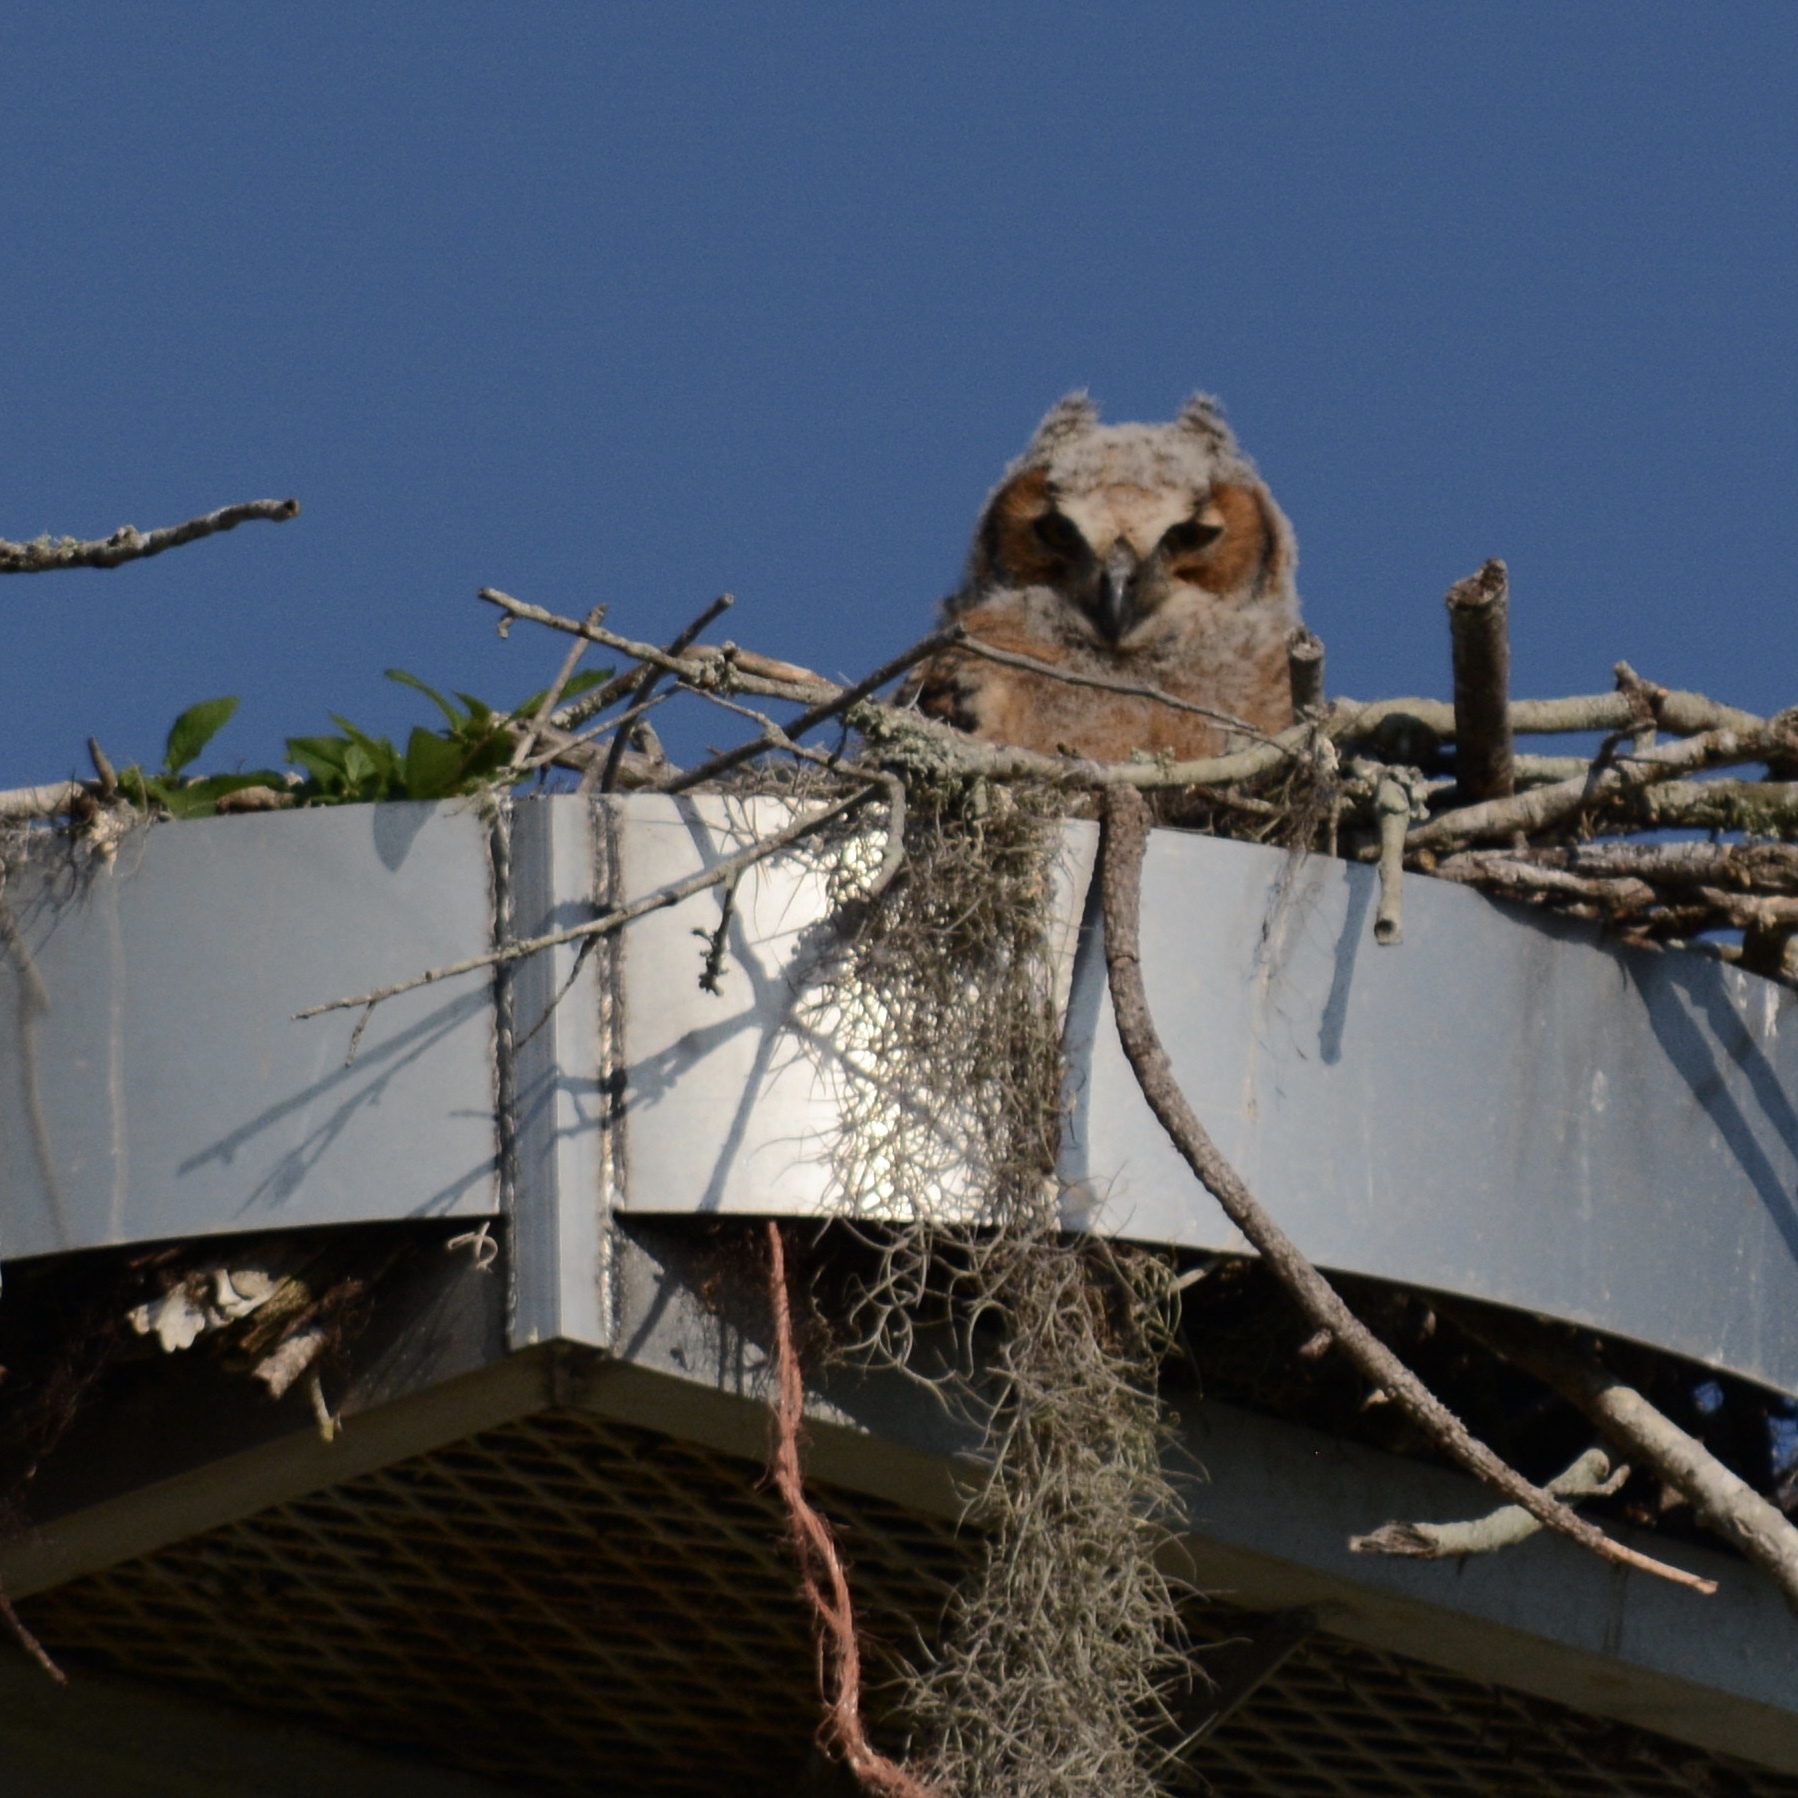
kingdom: Animalia
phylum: Chordata
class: Aves
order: Strigiformes
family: Strigidae
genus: Bubo
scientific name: Bubo virginianus
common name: Great horned owl
